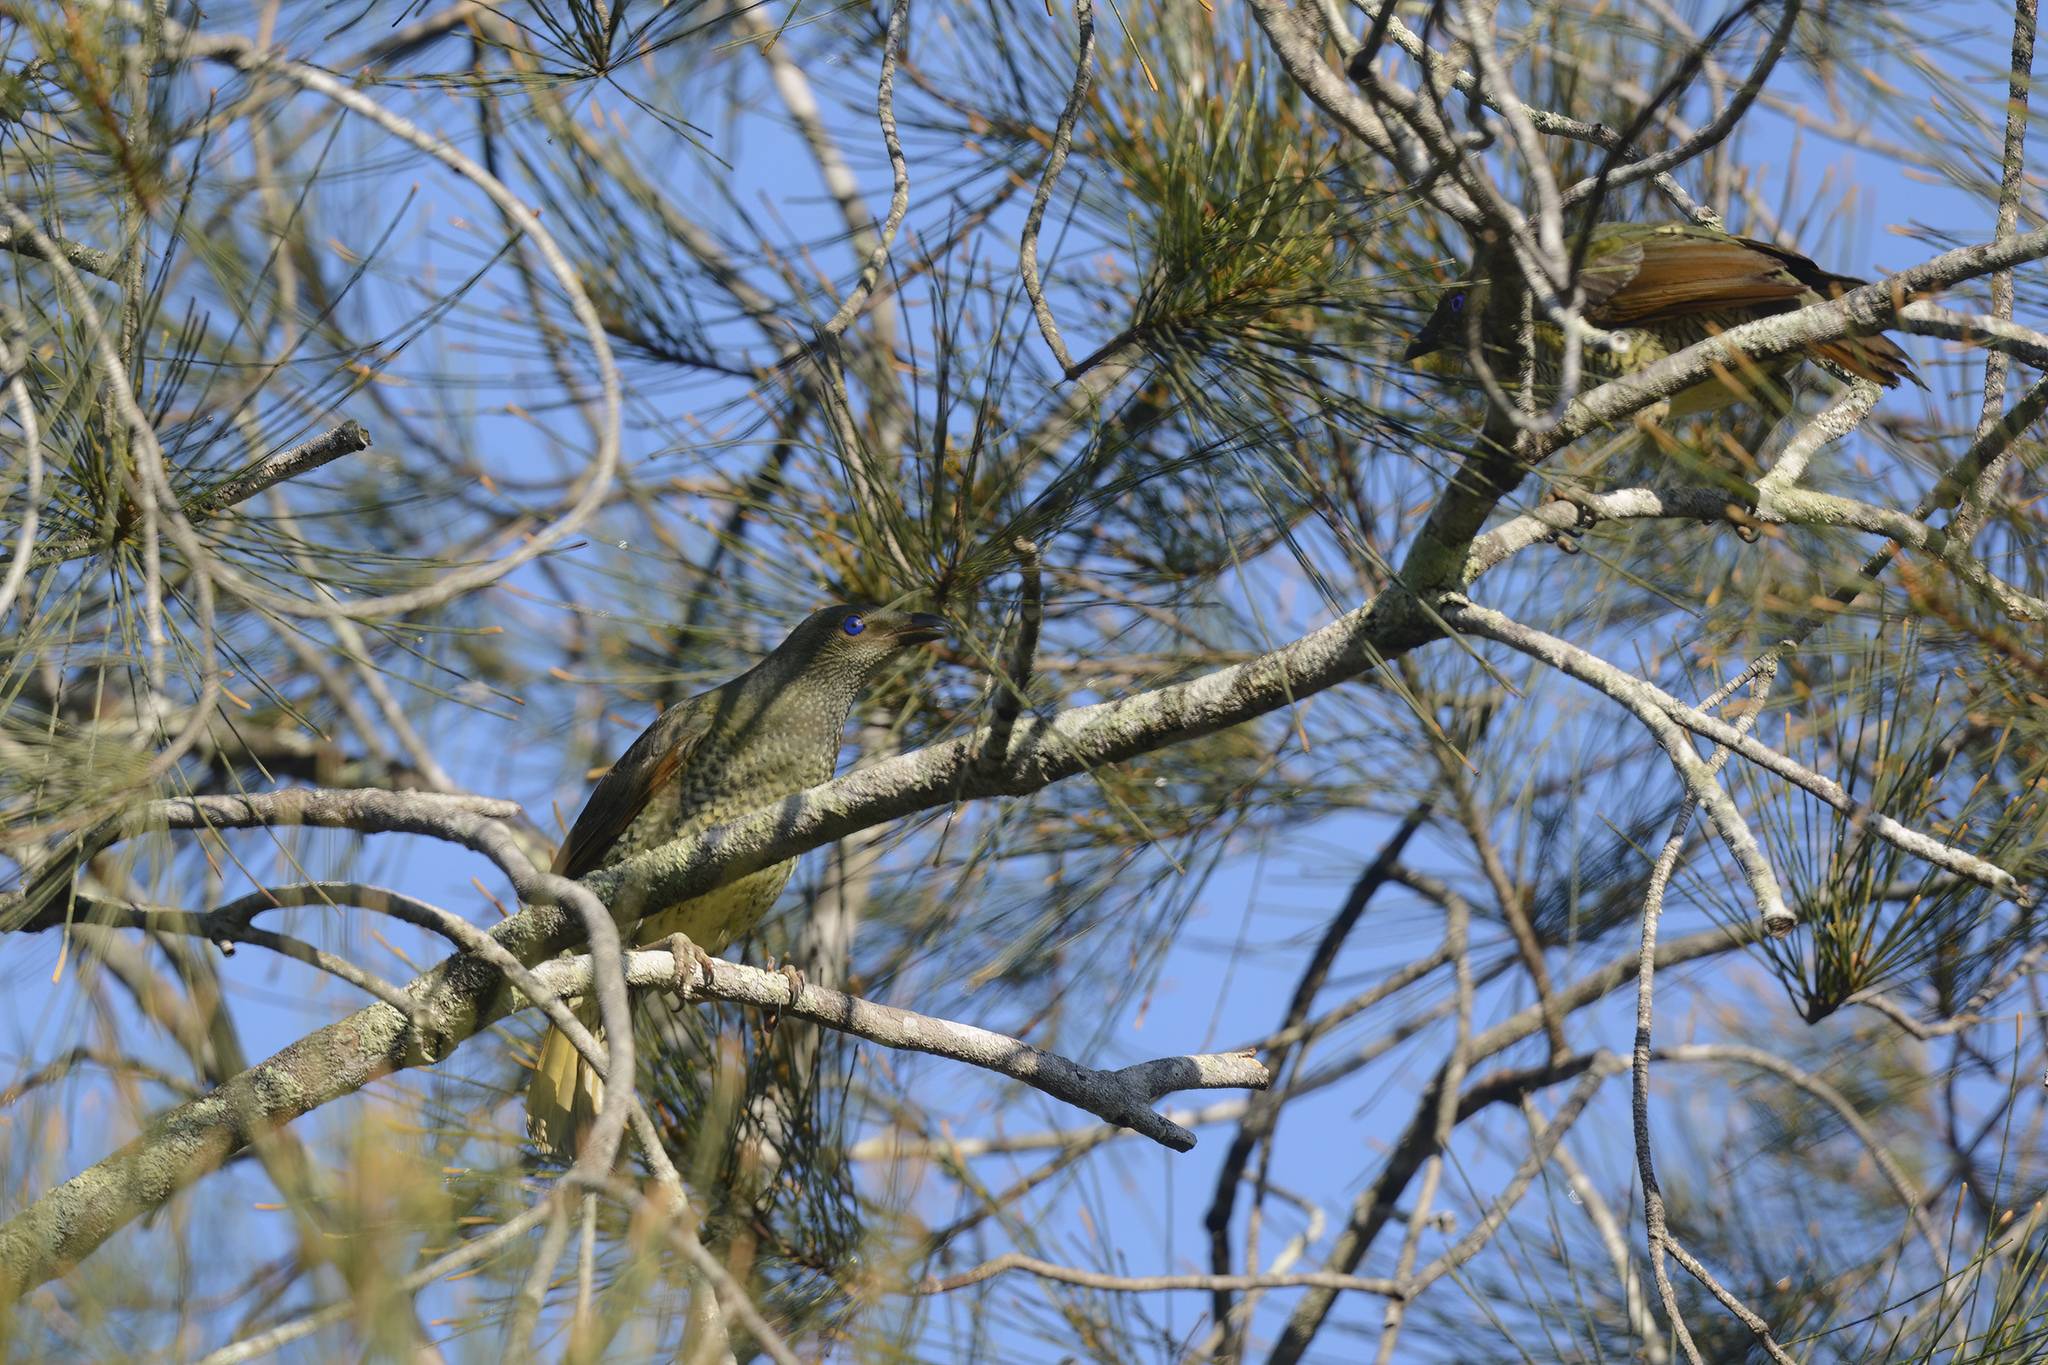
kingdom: Animalia
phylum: Chordata
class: Aves
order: Passeriformes
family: Ptilonorhynchidae
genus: Ptilonorhynchus
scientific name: Ptilonorhynchus violaceus
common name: Satin bowerbird
